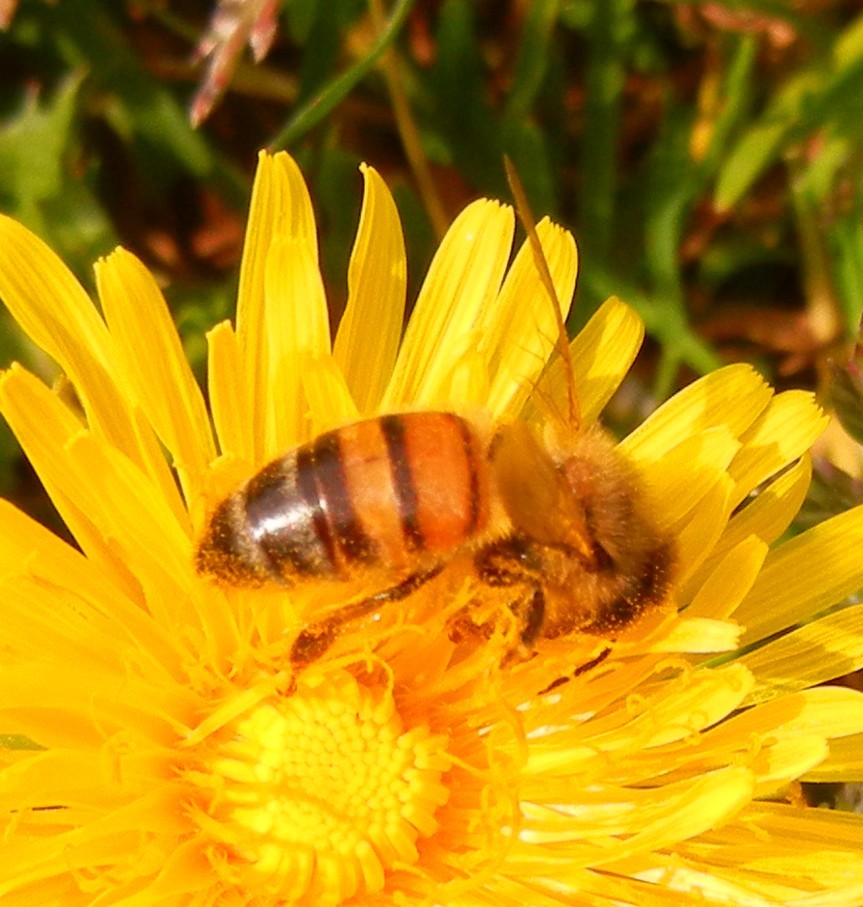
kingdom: Animalia
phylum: Arthropoda
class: Insecta
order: Hymenoptera
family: Apidae
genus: Apis
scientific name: Apis mellifera
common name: Honey bee
